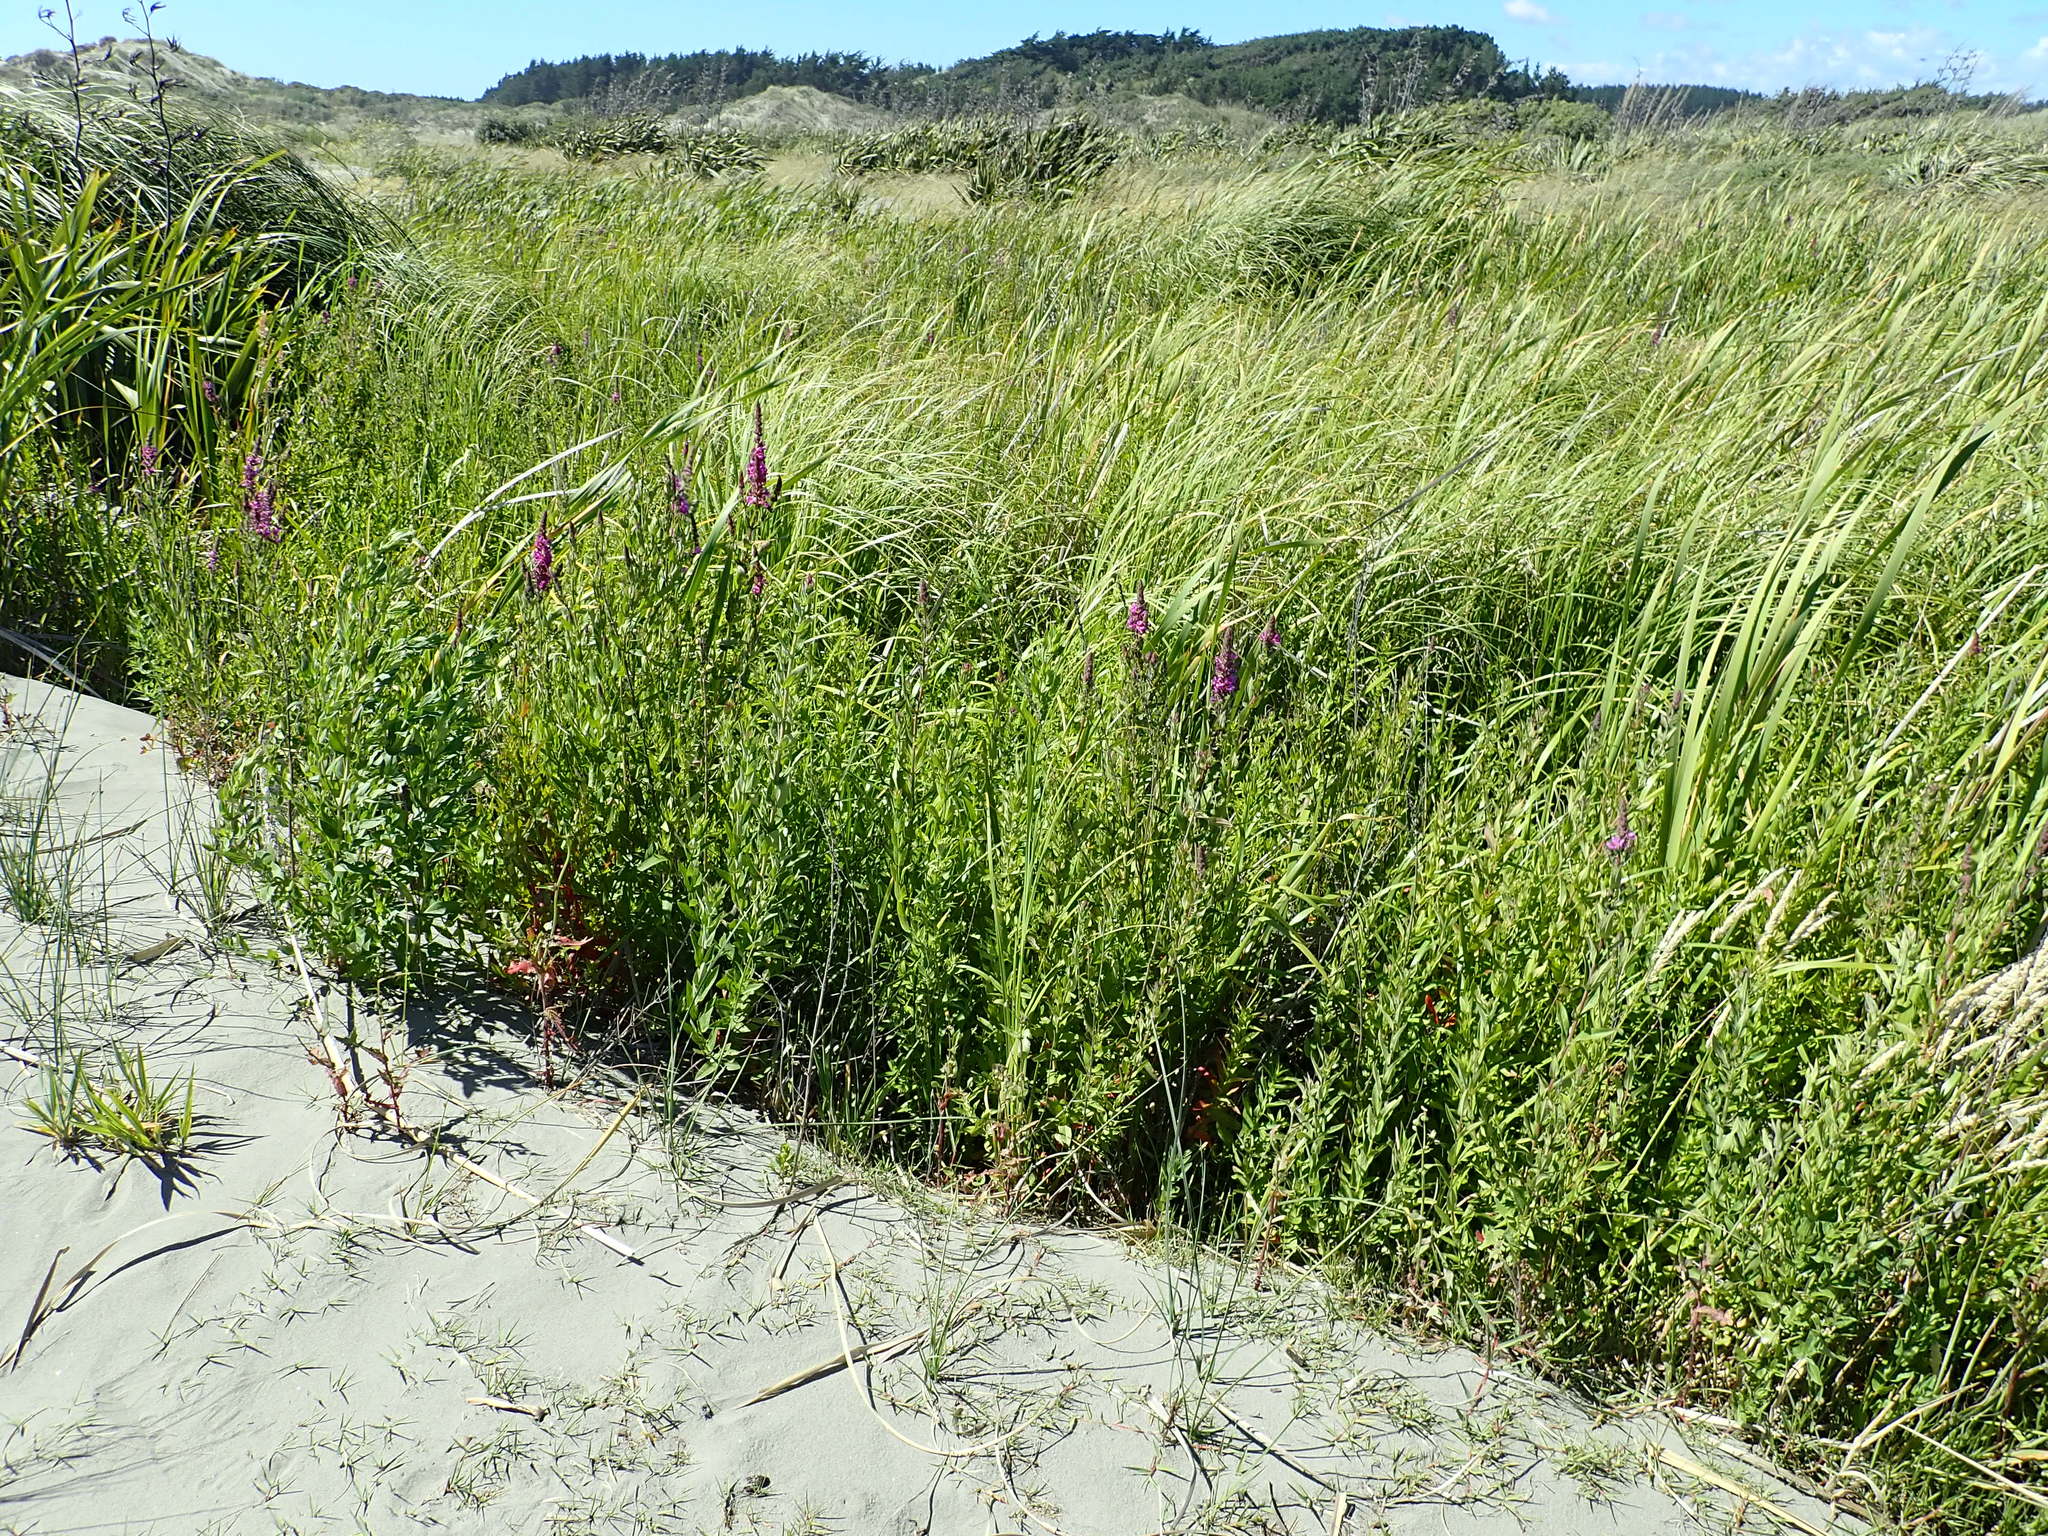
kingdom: Plantae
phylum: Tracheophyta
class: Magnoliopsida
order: Myrtales
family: Lythraceae
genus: Lythrum
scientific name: Lythrum salicaria
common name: Purple loosestrife
